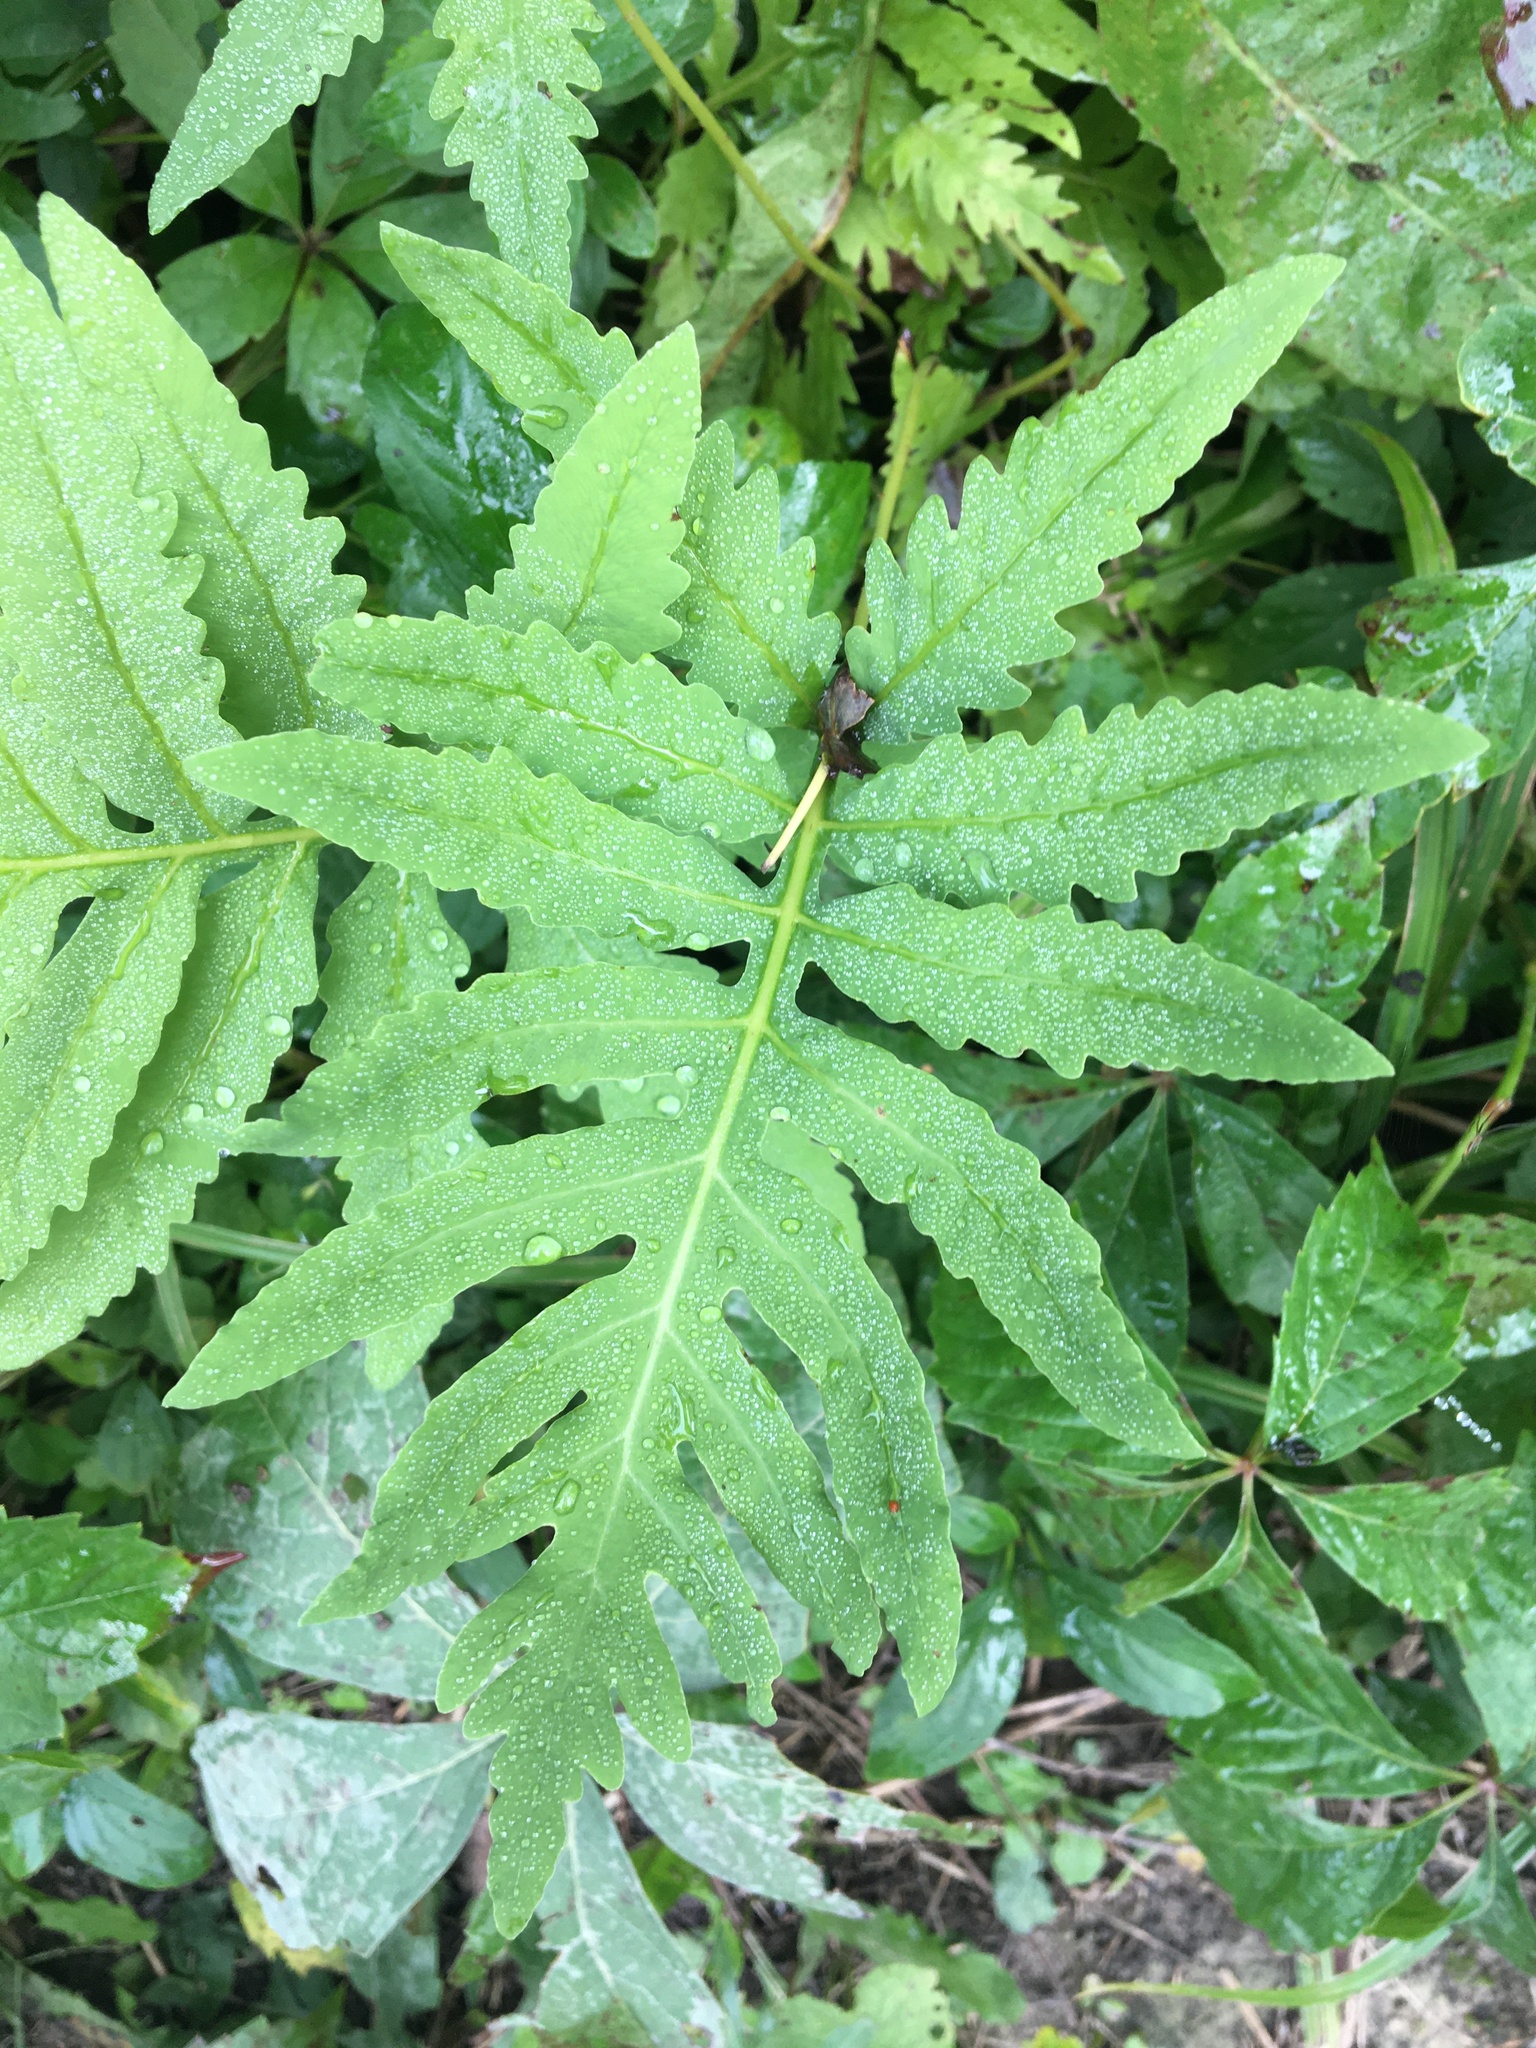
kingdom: Plantae
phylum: Tracheophyta
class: Polypodiopsida
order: Polypodiales
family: Onocleaceae
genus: Onoclea
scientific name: Onoclea sensibilis
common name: Sensitive fern
